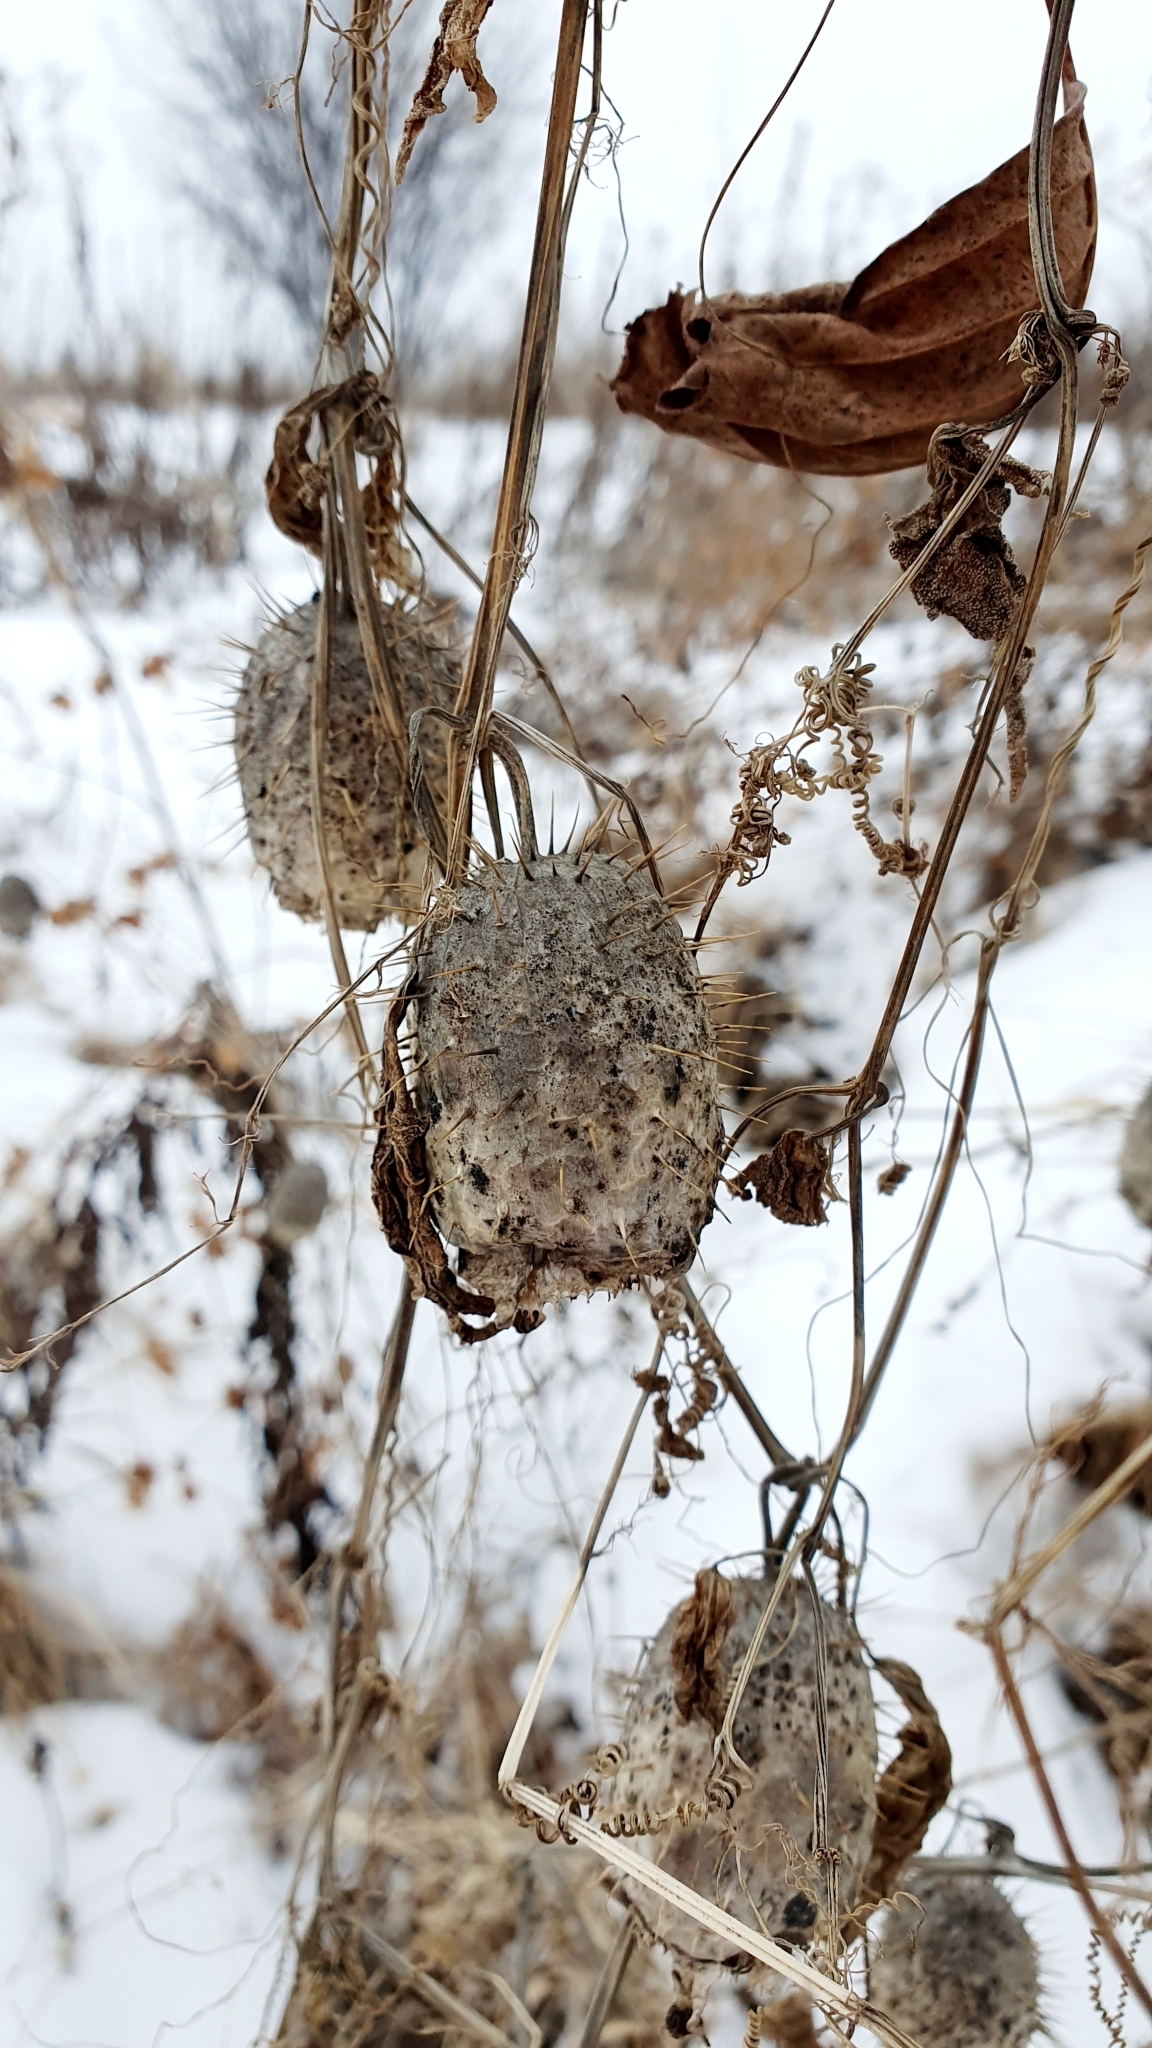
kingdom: Plantae
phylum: Tracheophyta
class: Magnoliopsida
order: Cucurbitales
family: Cucurbitaceae
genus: Echinocystis
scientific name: Echinocystis lobata
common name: Wild cucumber
